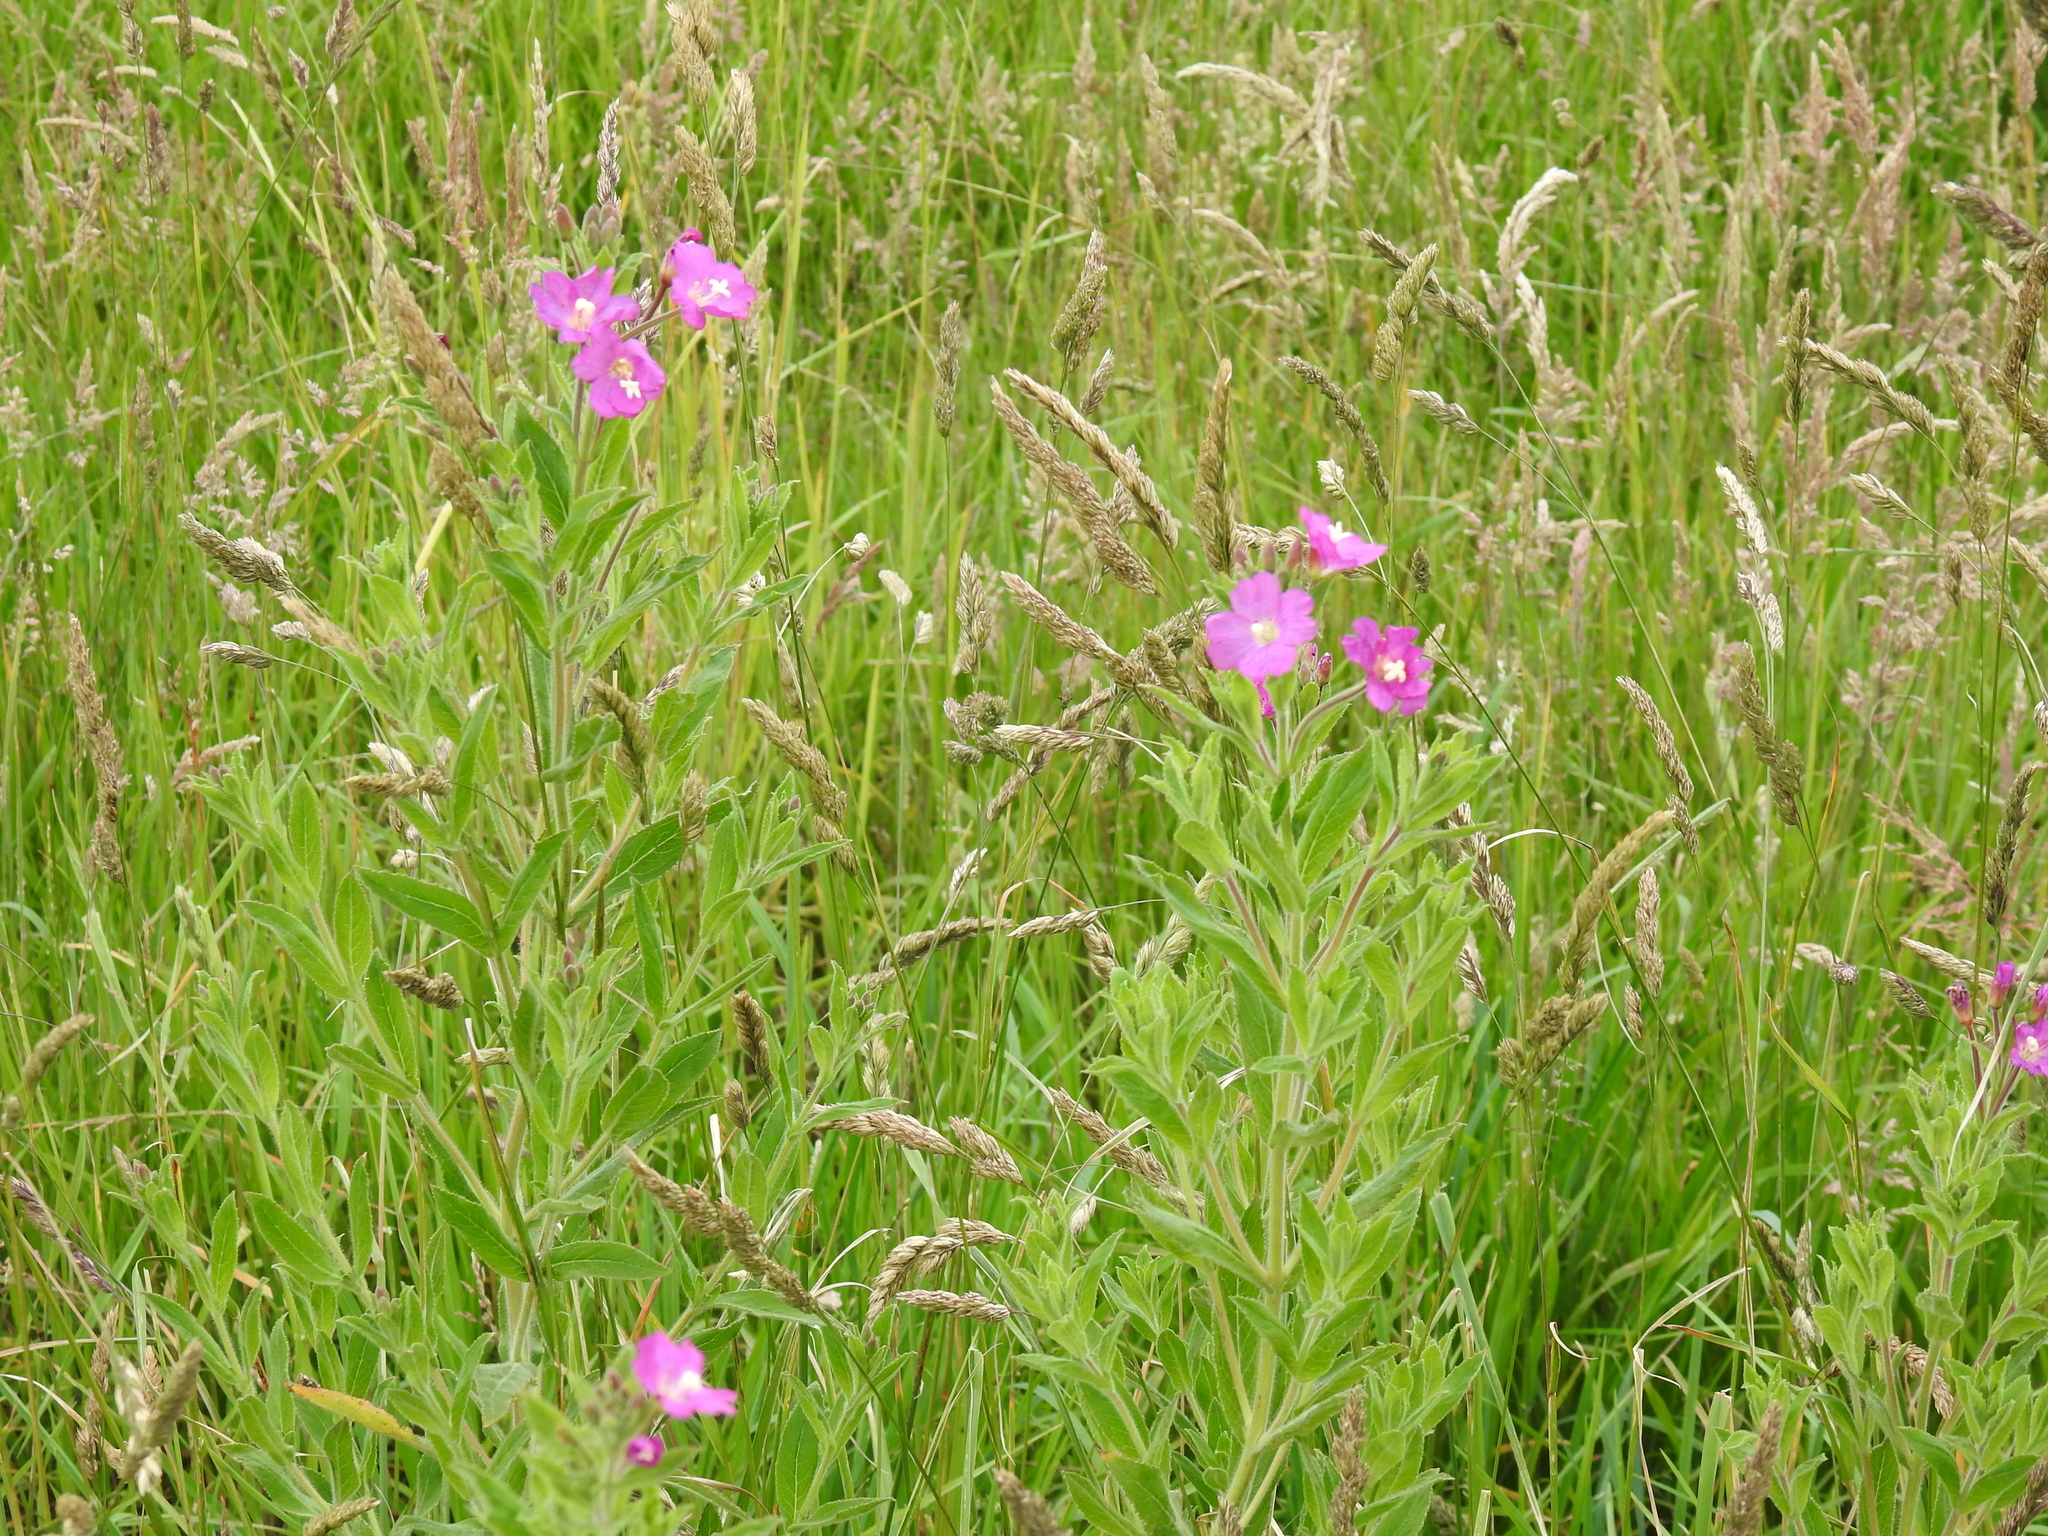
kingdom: Plantae
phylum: Tracheophyta
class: Magnoliopsida
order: Myrtales
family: Onagraceae
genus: Epilobium
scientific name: Epilobium hirsutum
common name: Great willowherb
